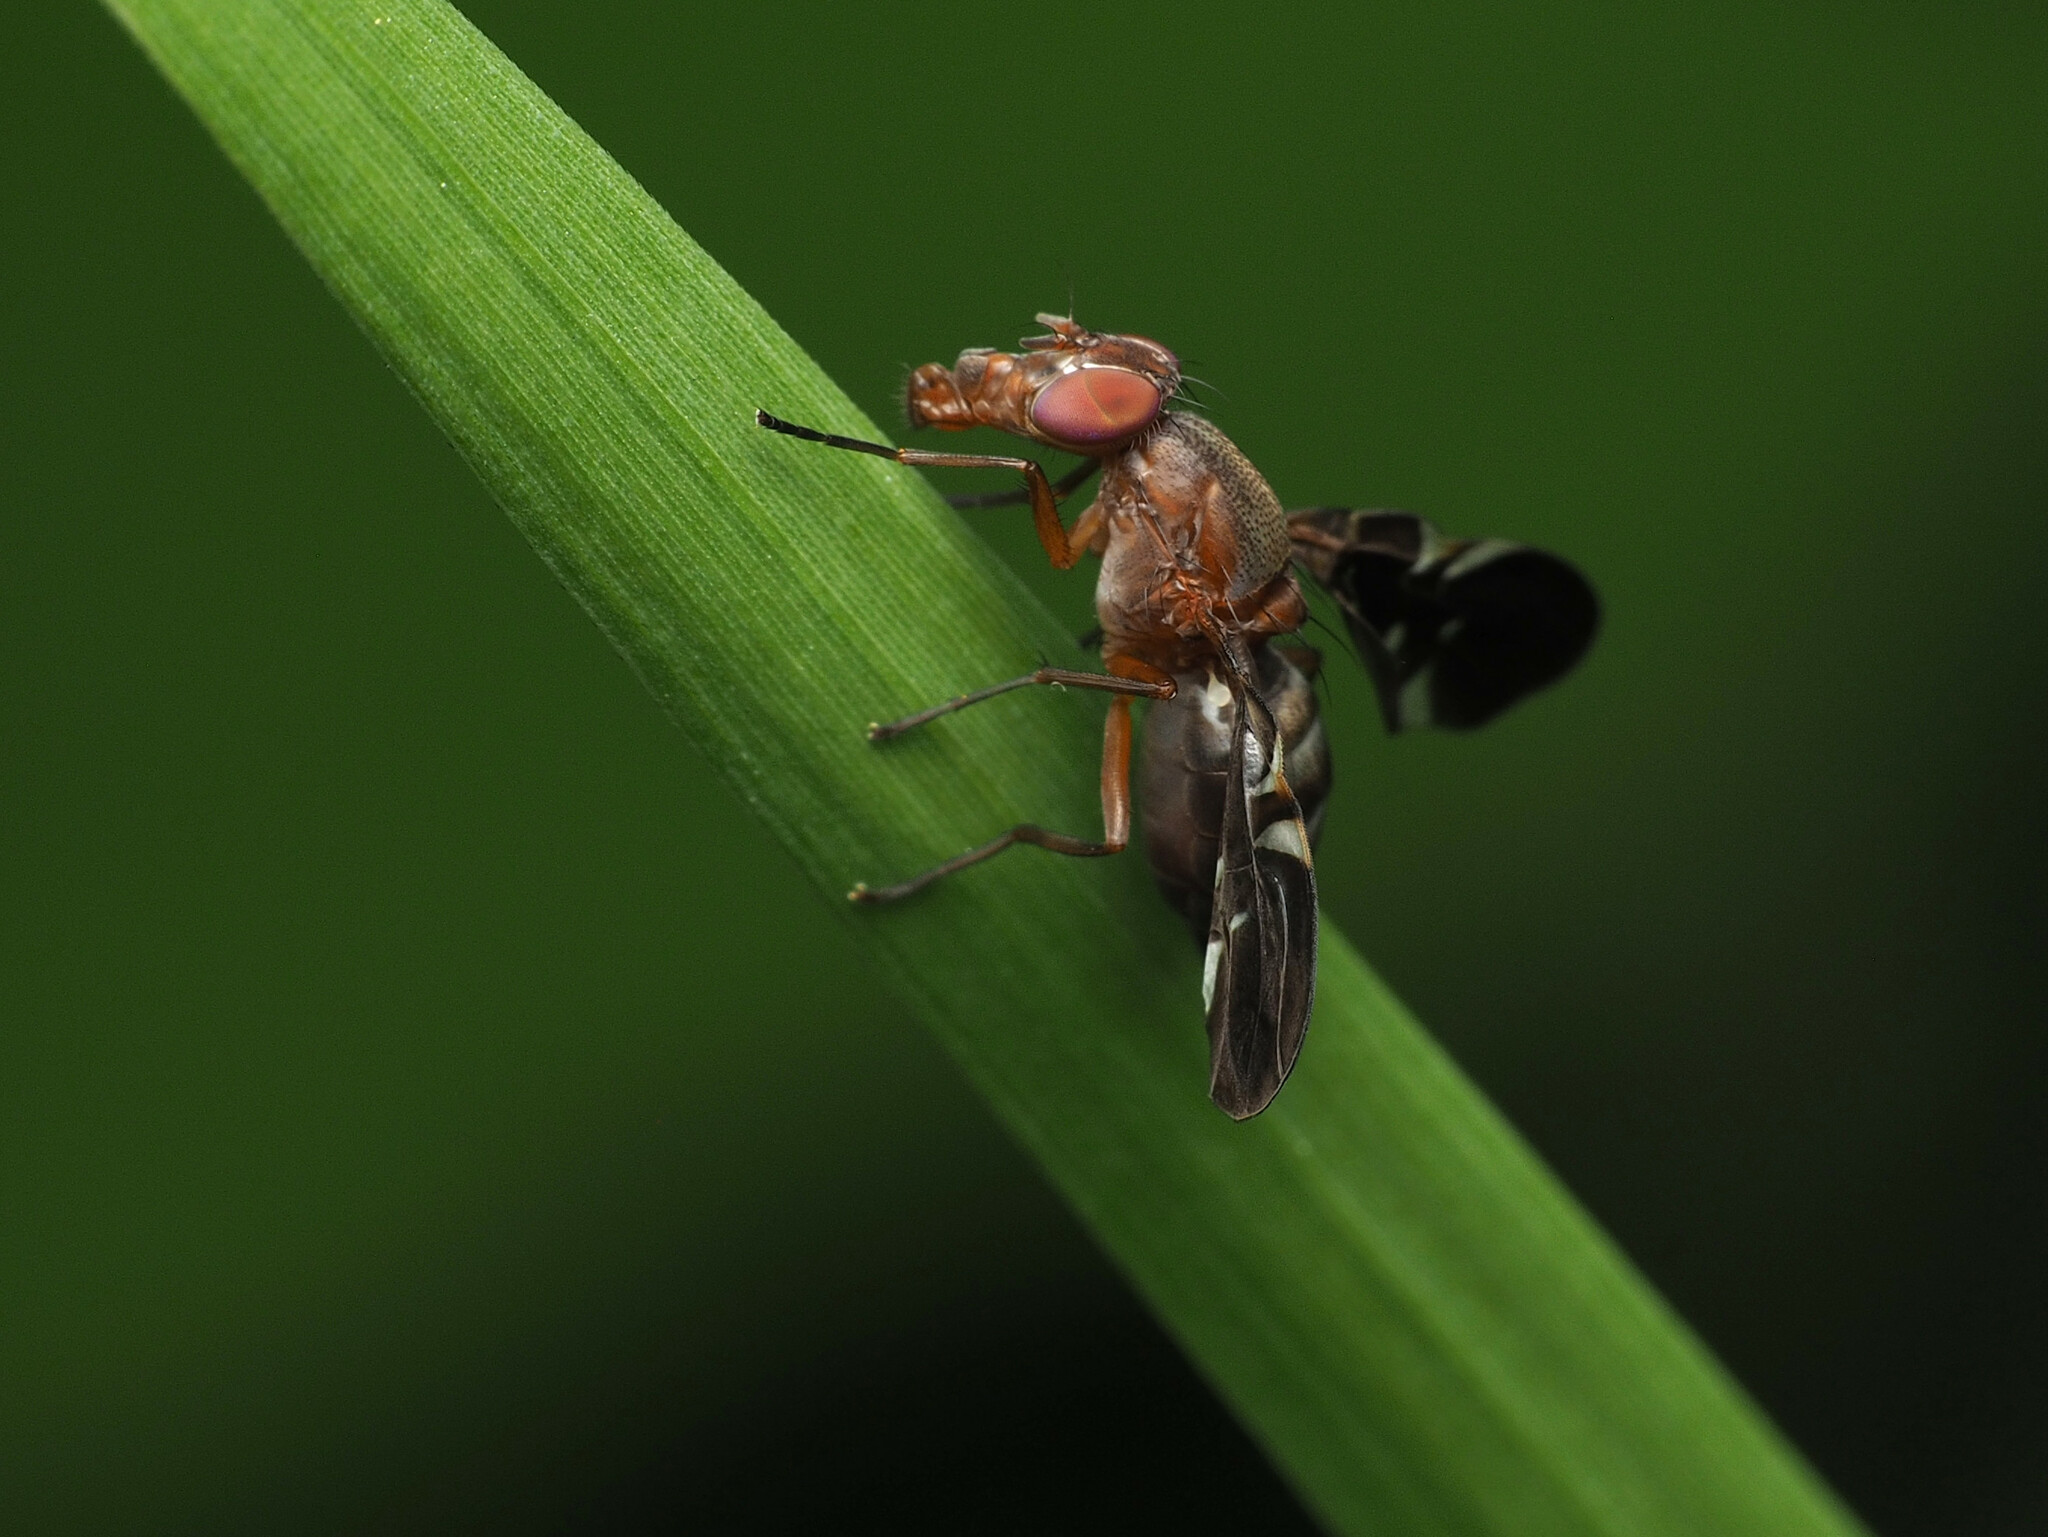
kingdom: Animalia
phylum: Arthropoda
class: Insecta
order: Diptera
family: Ulidiidae
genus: Delphinia
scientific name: Delphinia picta
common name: Common picture-winged fly
